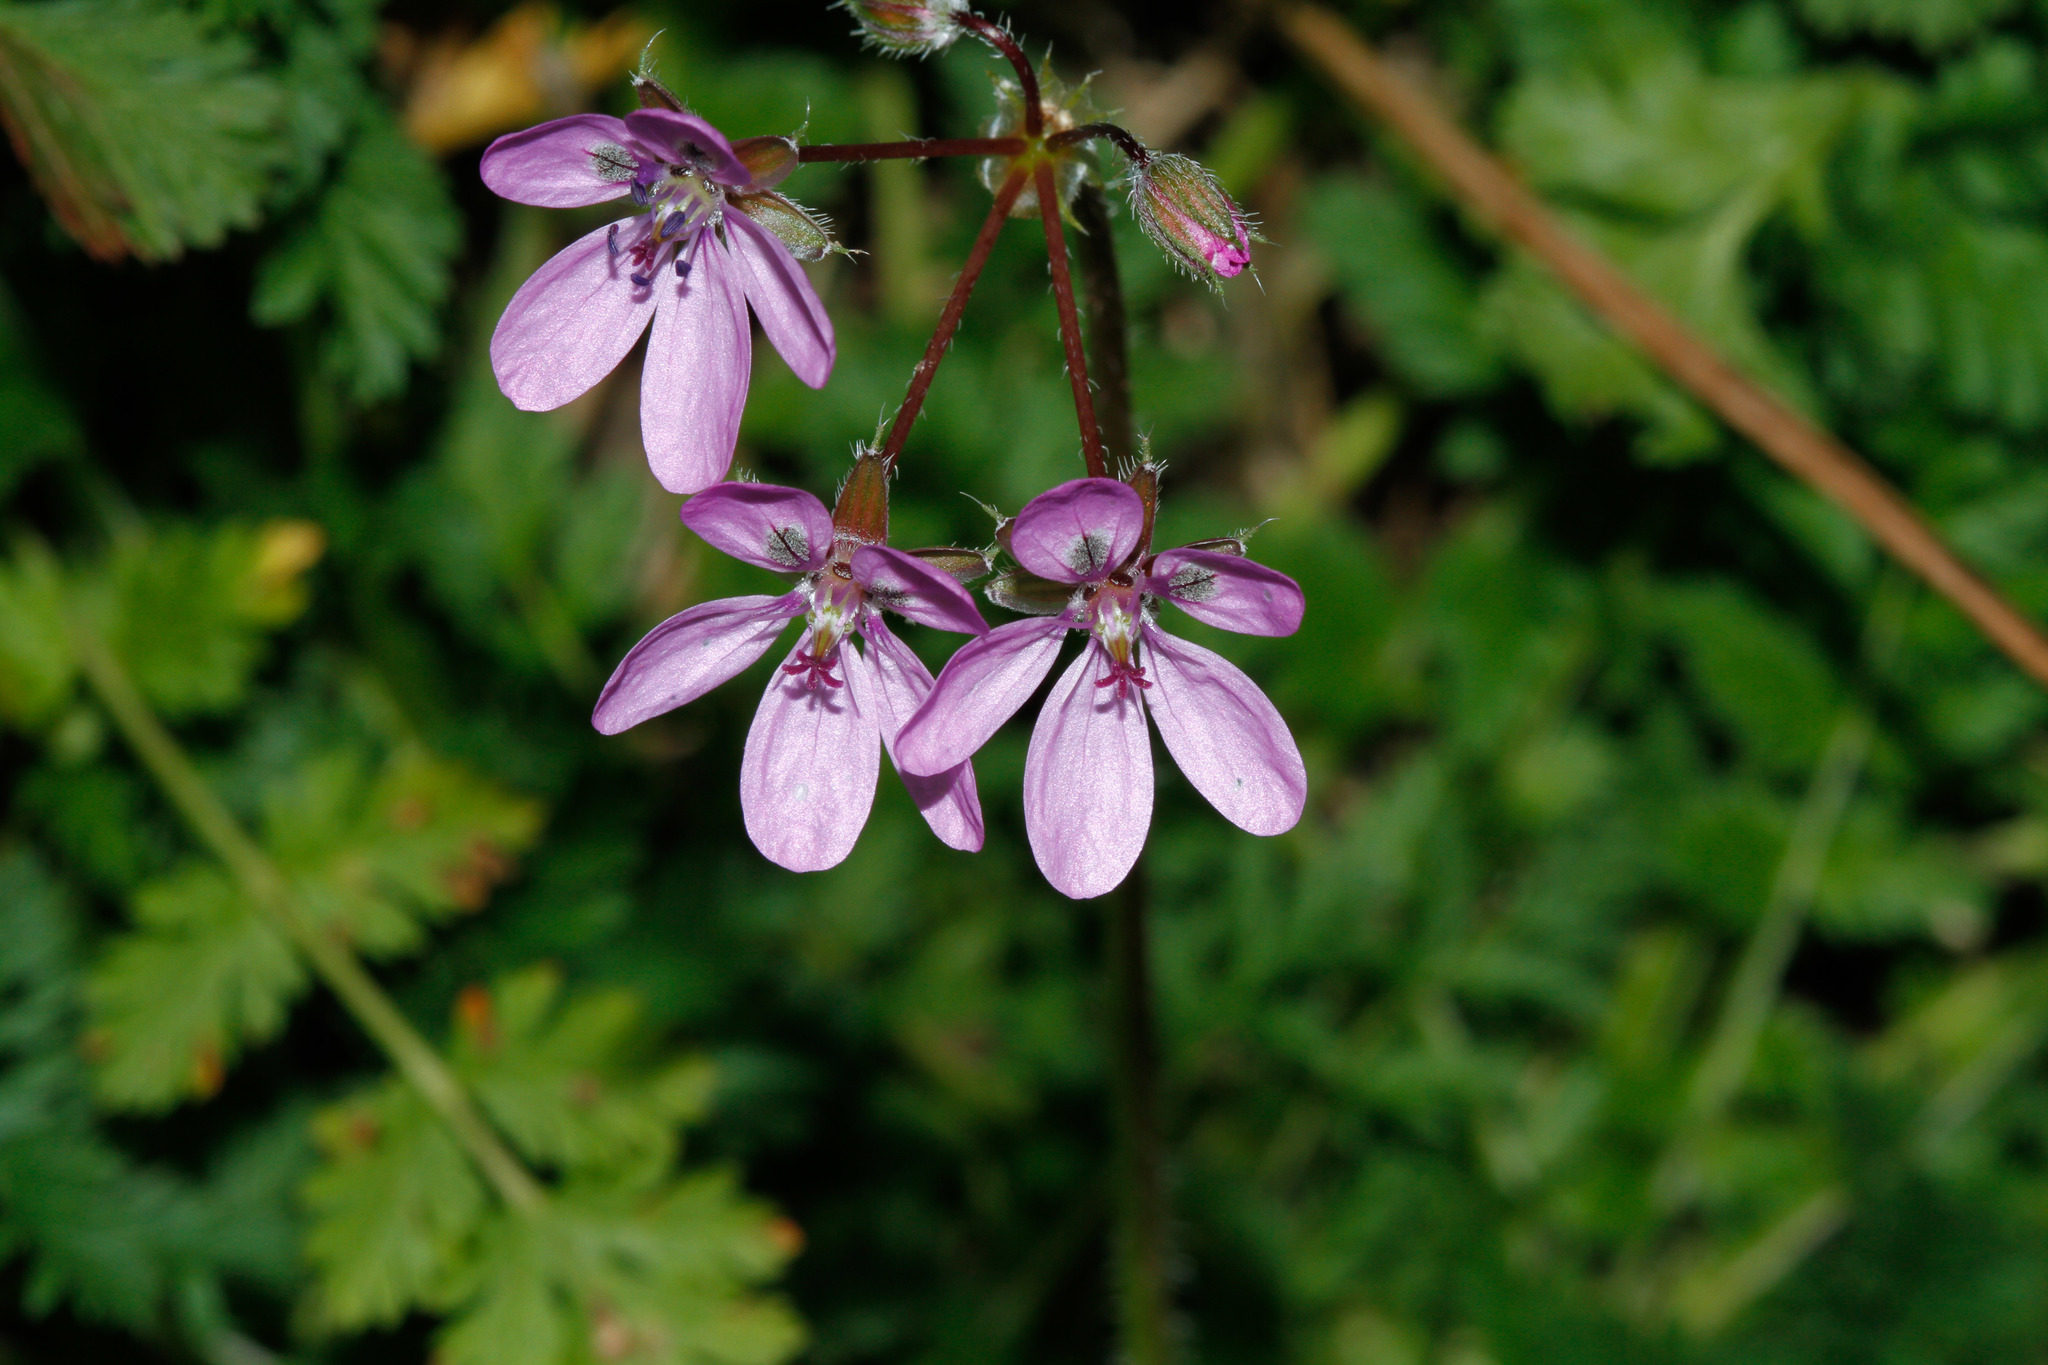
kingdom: Plantae
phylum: Tracheophyta
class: Magnoliopsida
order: Geraniales
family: Geraniaceae
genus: Erodium
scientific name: Erodium cicutarium
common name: Common stork's-bill
